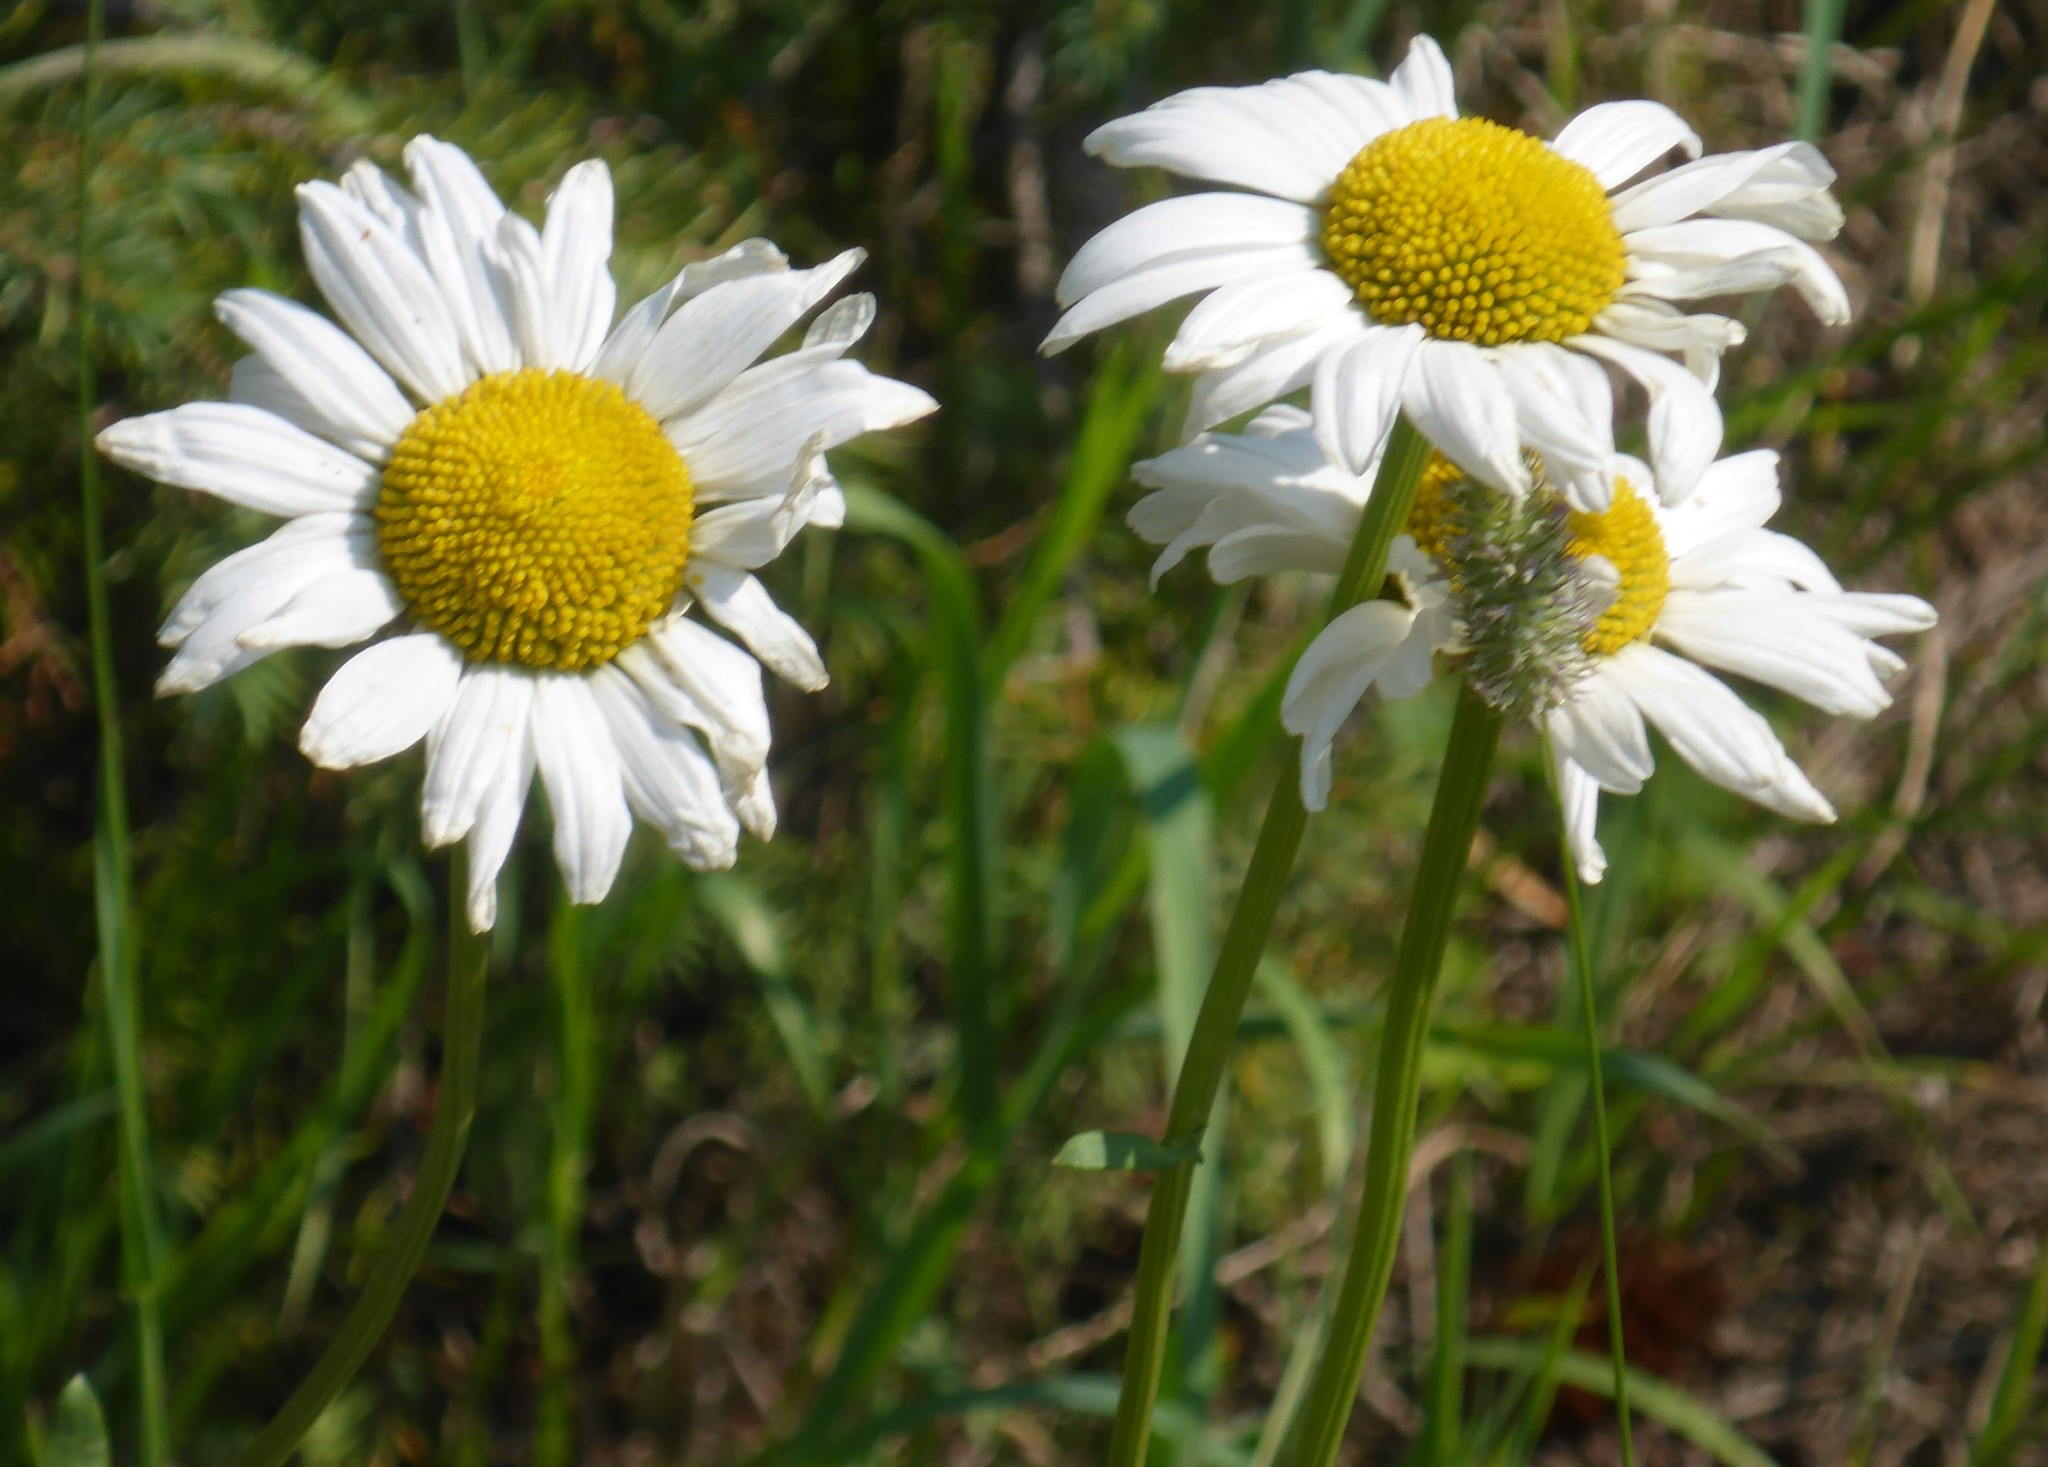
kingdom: Plantae
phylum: Tracheophyta
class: Magnoliopsida
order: Asterales
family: Asteraceae
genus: Leucanthemum
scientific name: Leucanthemum vulgare
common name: Oxeye daisy
